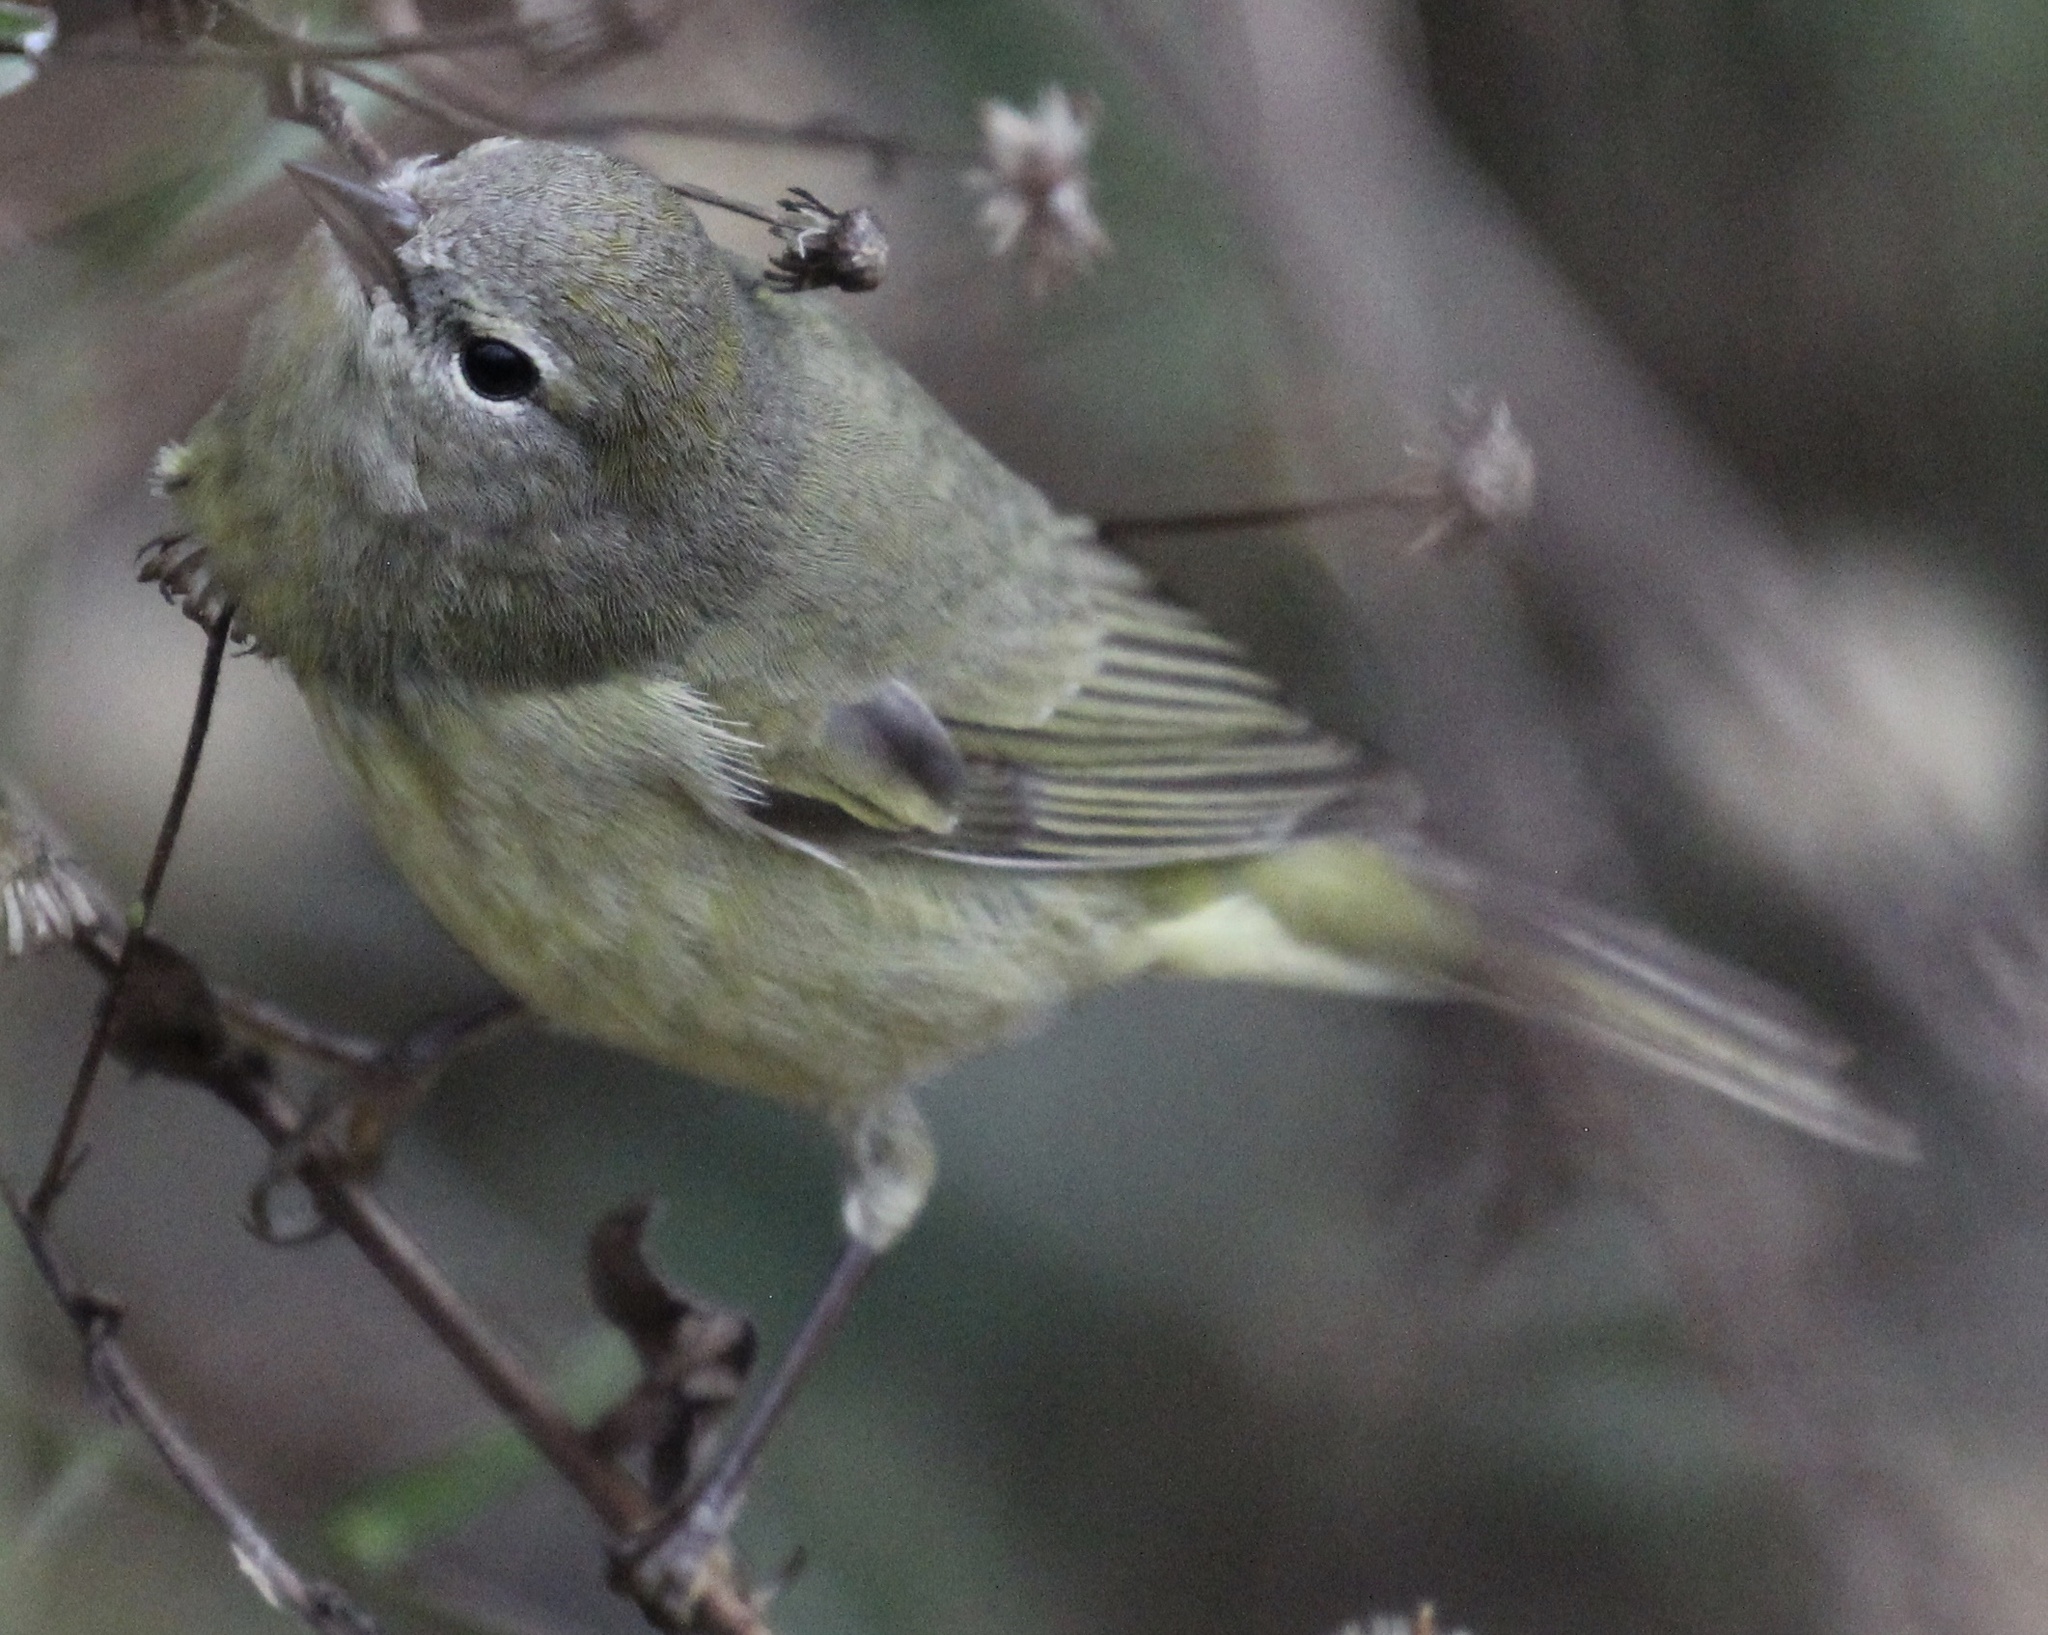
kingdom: Animalia
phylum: Chordata
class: Aves
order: Passeriformes
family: Parulidae
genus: Leiothlypis
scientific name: Leiothlypis celata
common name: Orange-crowned warbler
